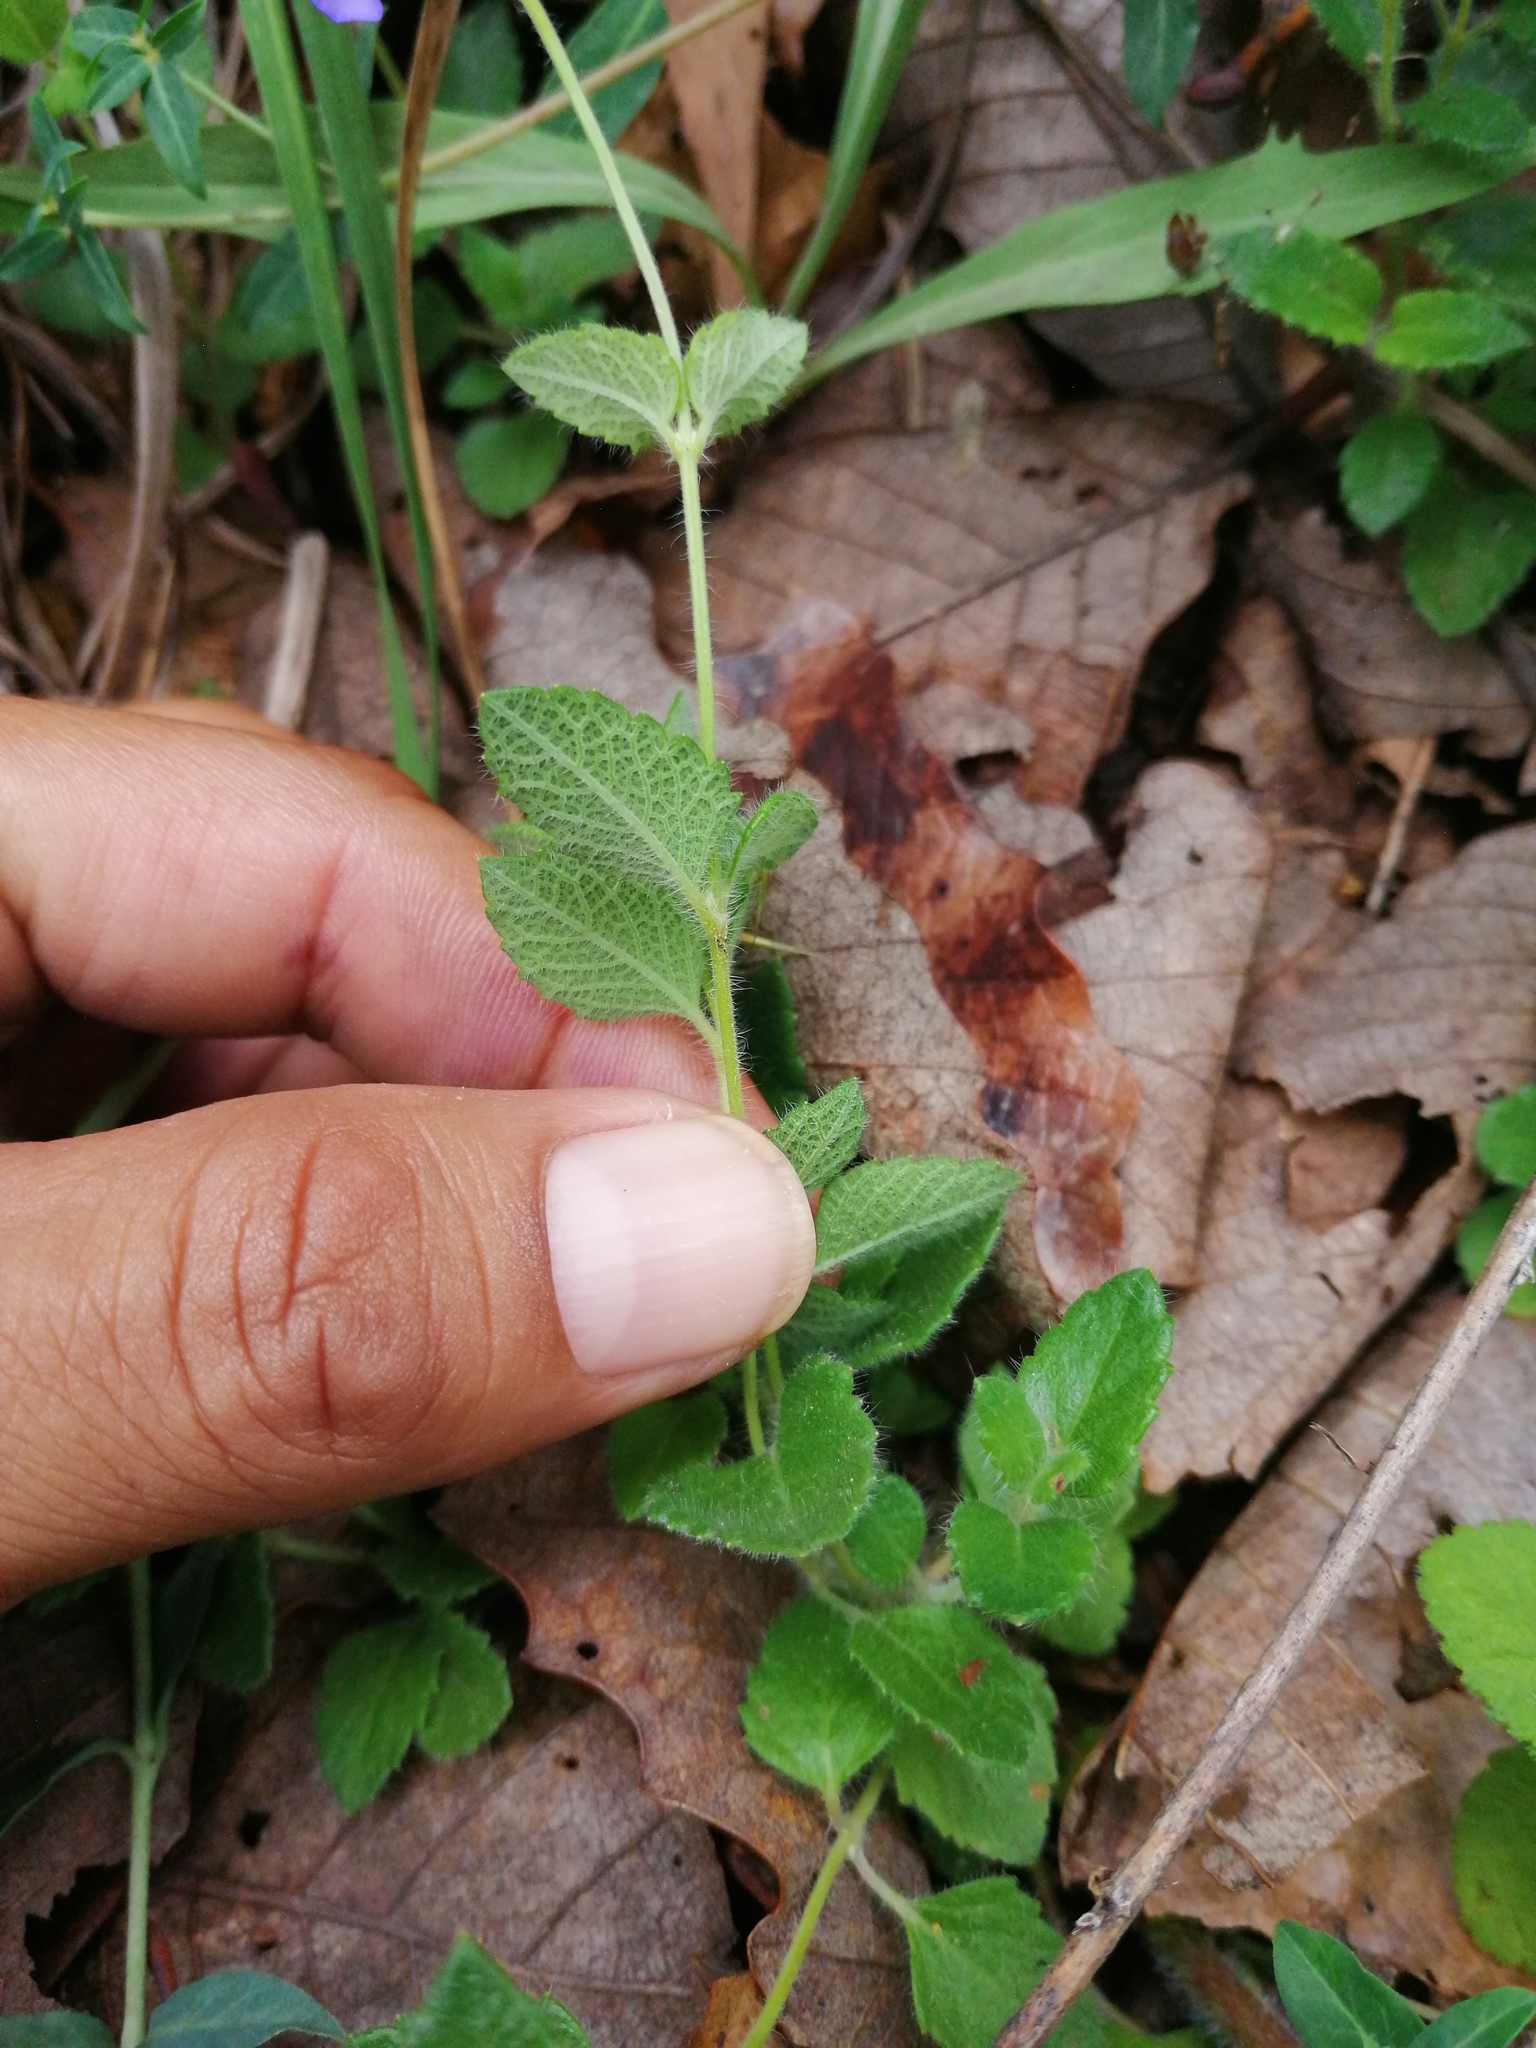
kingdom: Plantae
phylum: Tracheophyta
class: Magnoliopsida
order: Lamiales
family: Lamiaceae
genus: Salvia
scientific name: Salvia pusilla
